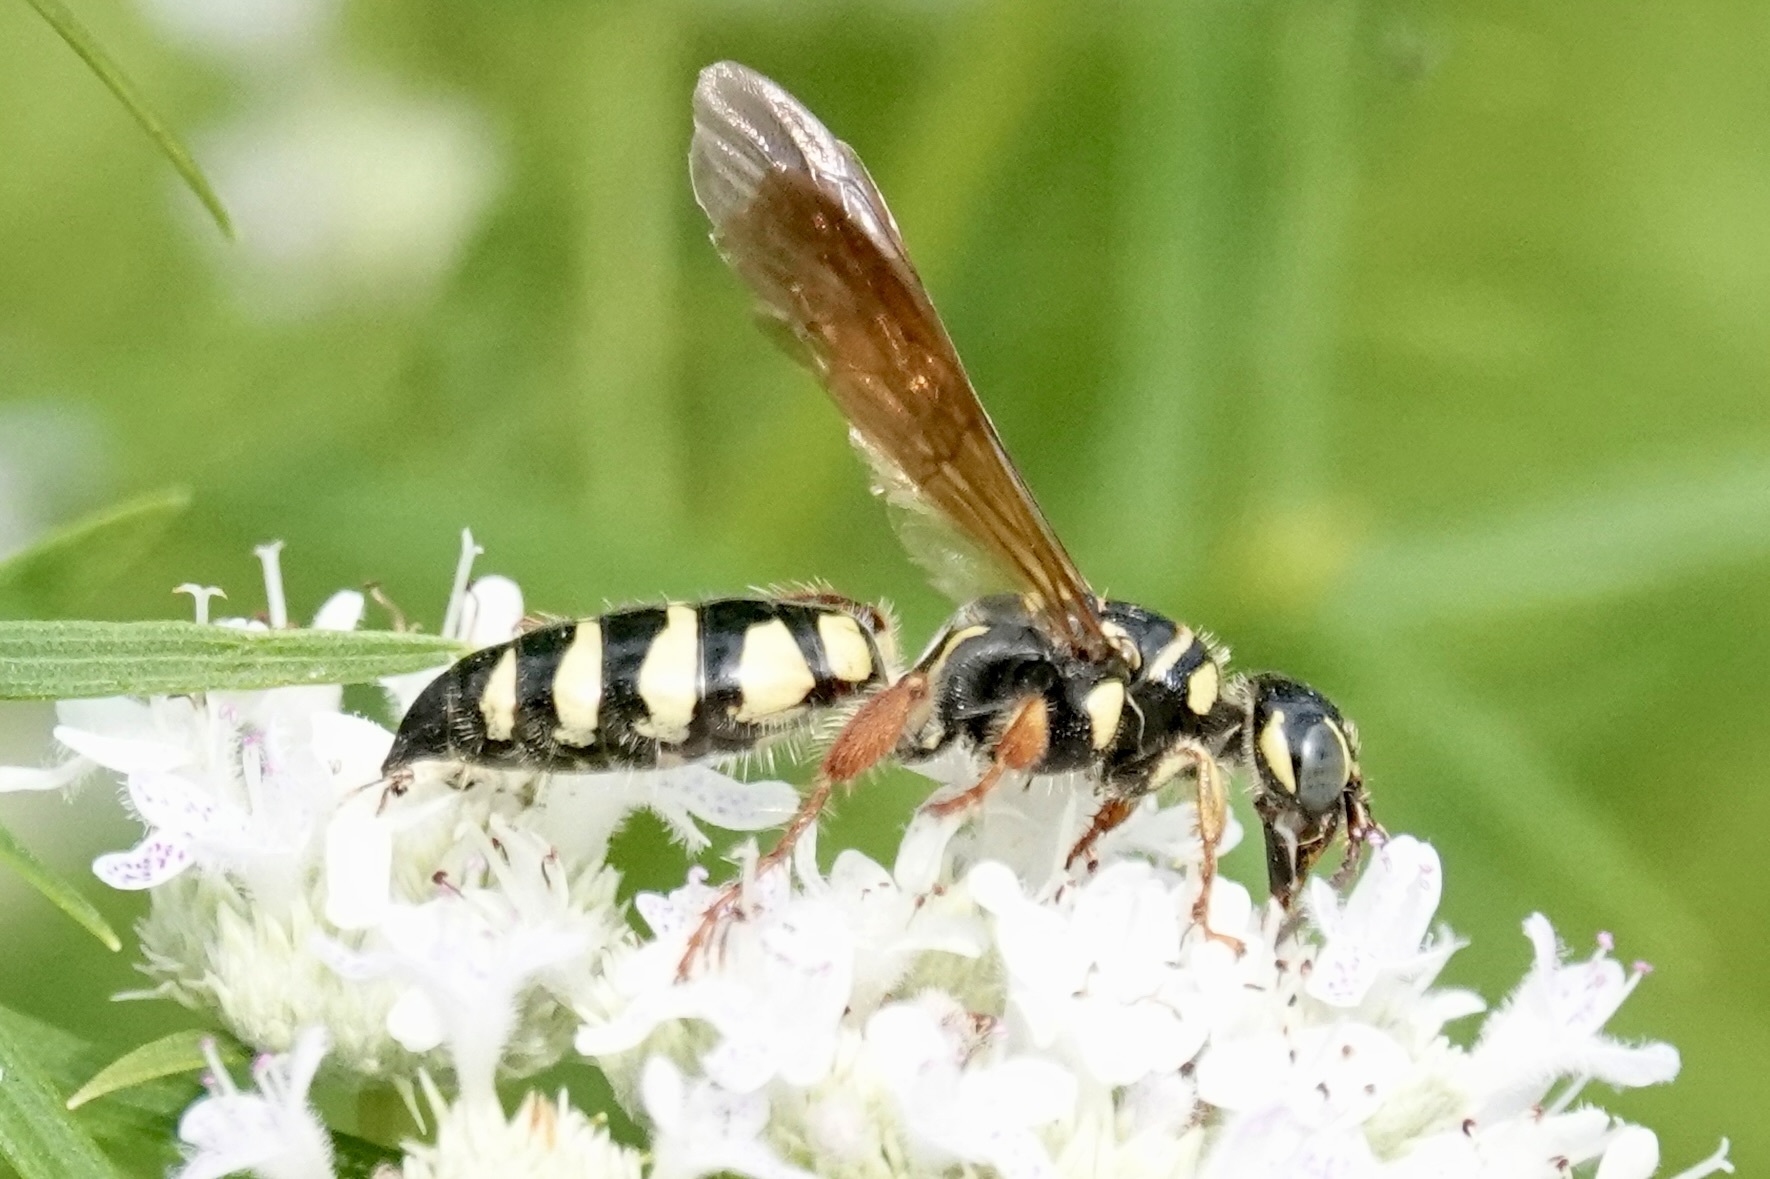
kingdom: Animalia
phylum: Arthropoda
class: Insecta
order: Hymenoptera
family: Tiphiidae
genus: Myzinum
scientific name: Myzinum quinquecinctum
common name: Five-banded thynnid wasp
